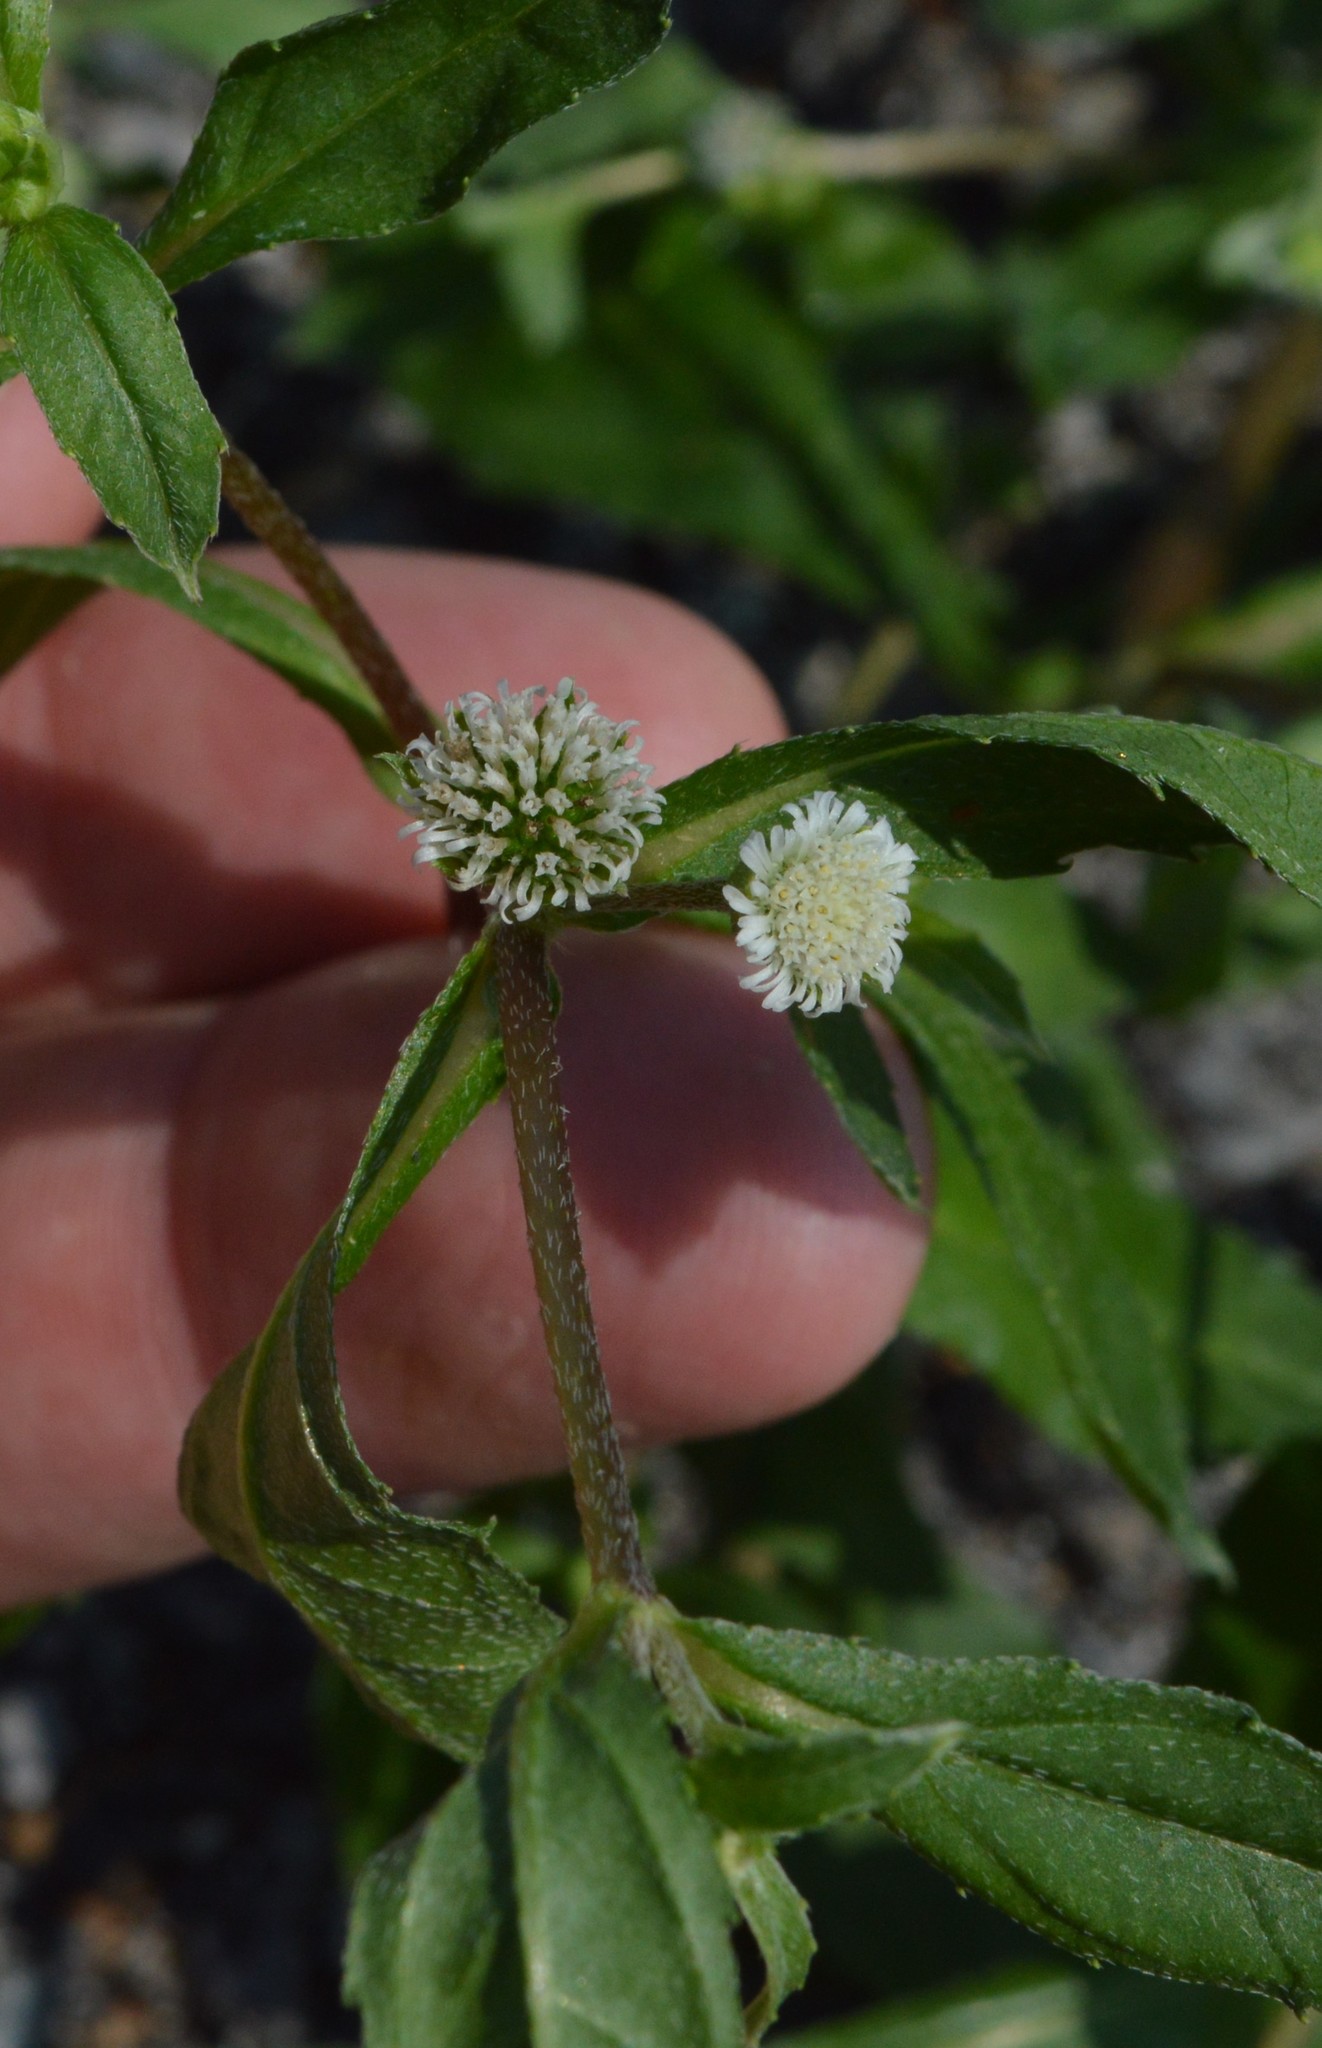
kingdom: Plantae
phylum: Tracheophyta
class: Magnoliopsida
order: Asterales
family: Asteraceae
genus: Eclipta
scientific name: Eclipta prostrata
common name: False daisy
